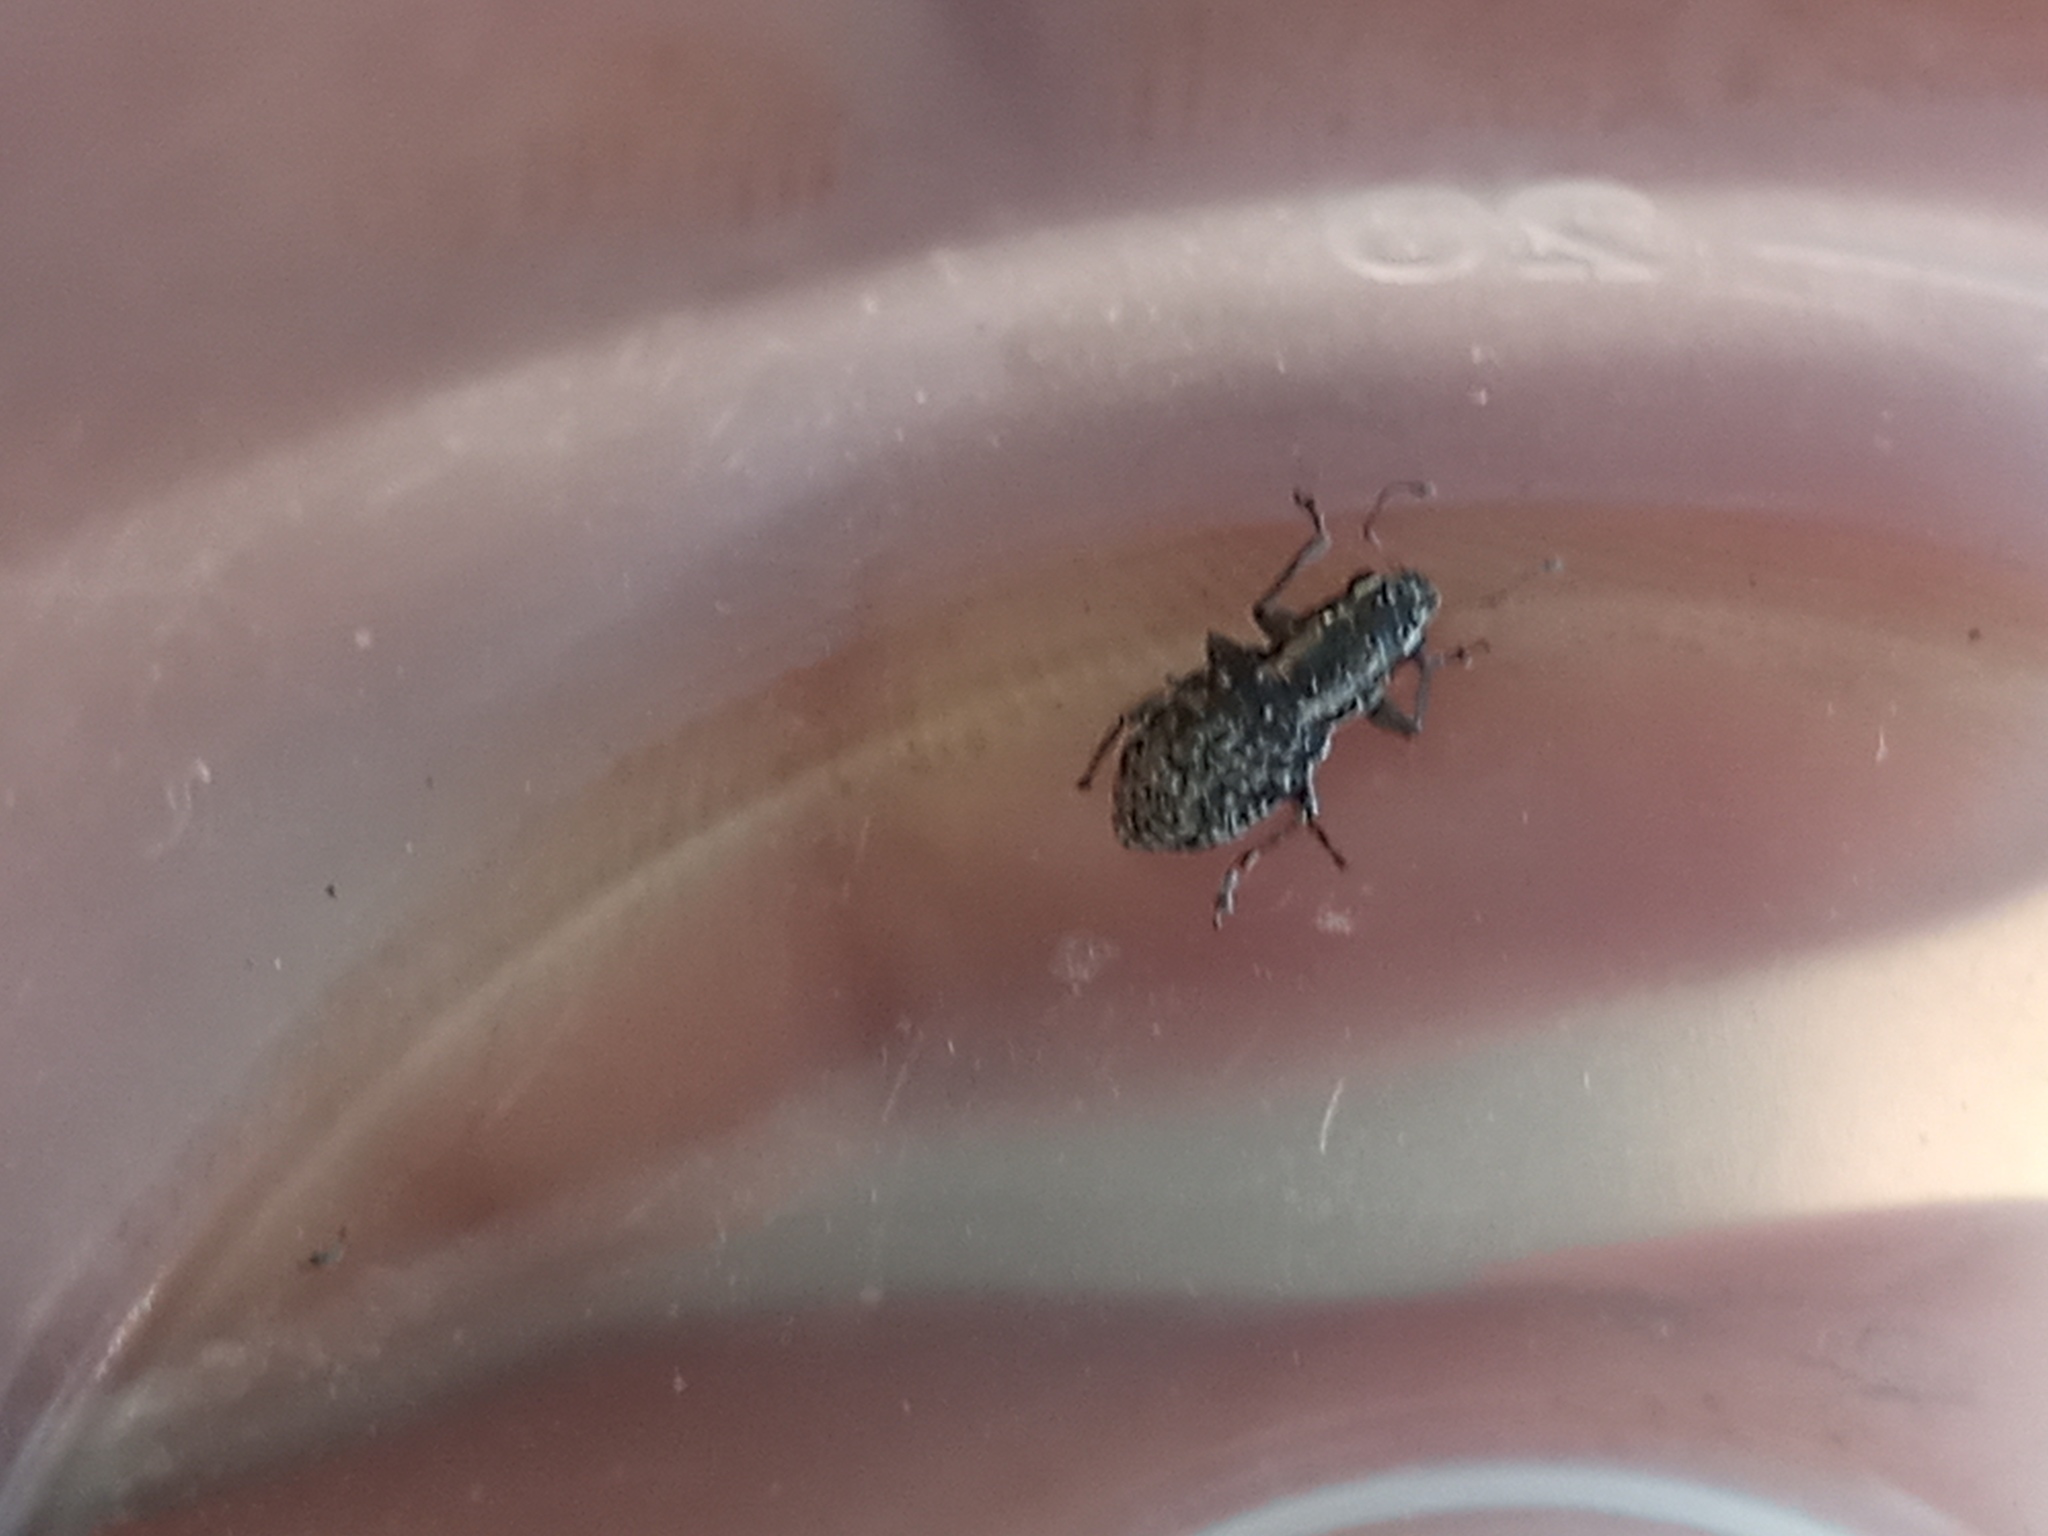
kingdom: Animalia
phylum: Arthropoda
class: Insecta
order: Coleoptera
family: Curculionidae
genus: Atrichonotus
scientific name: Atrichonotus taeniatulus
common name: Small lucerne weevil
